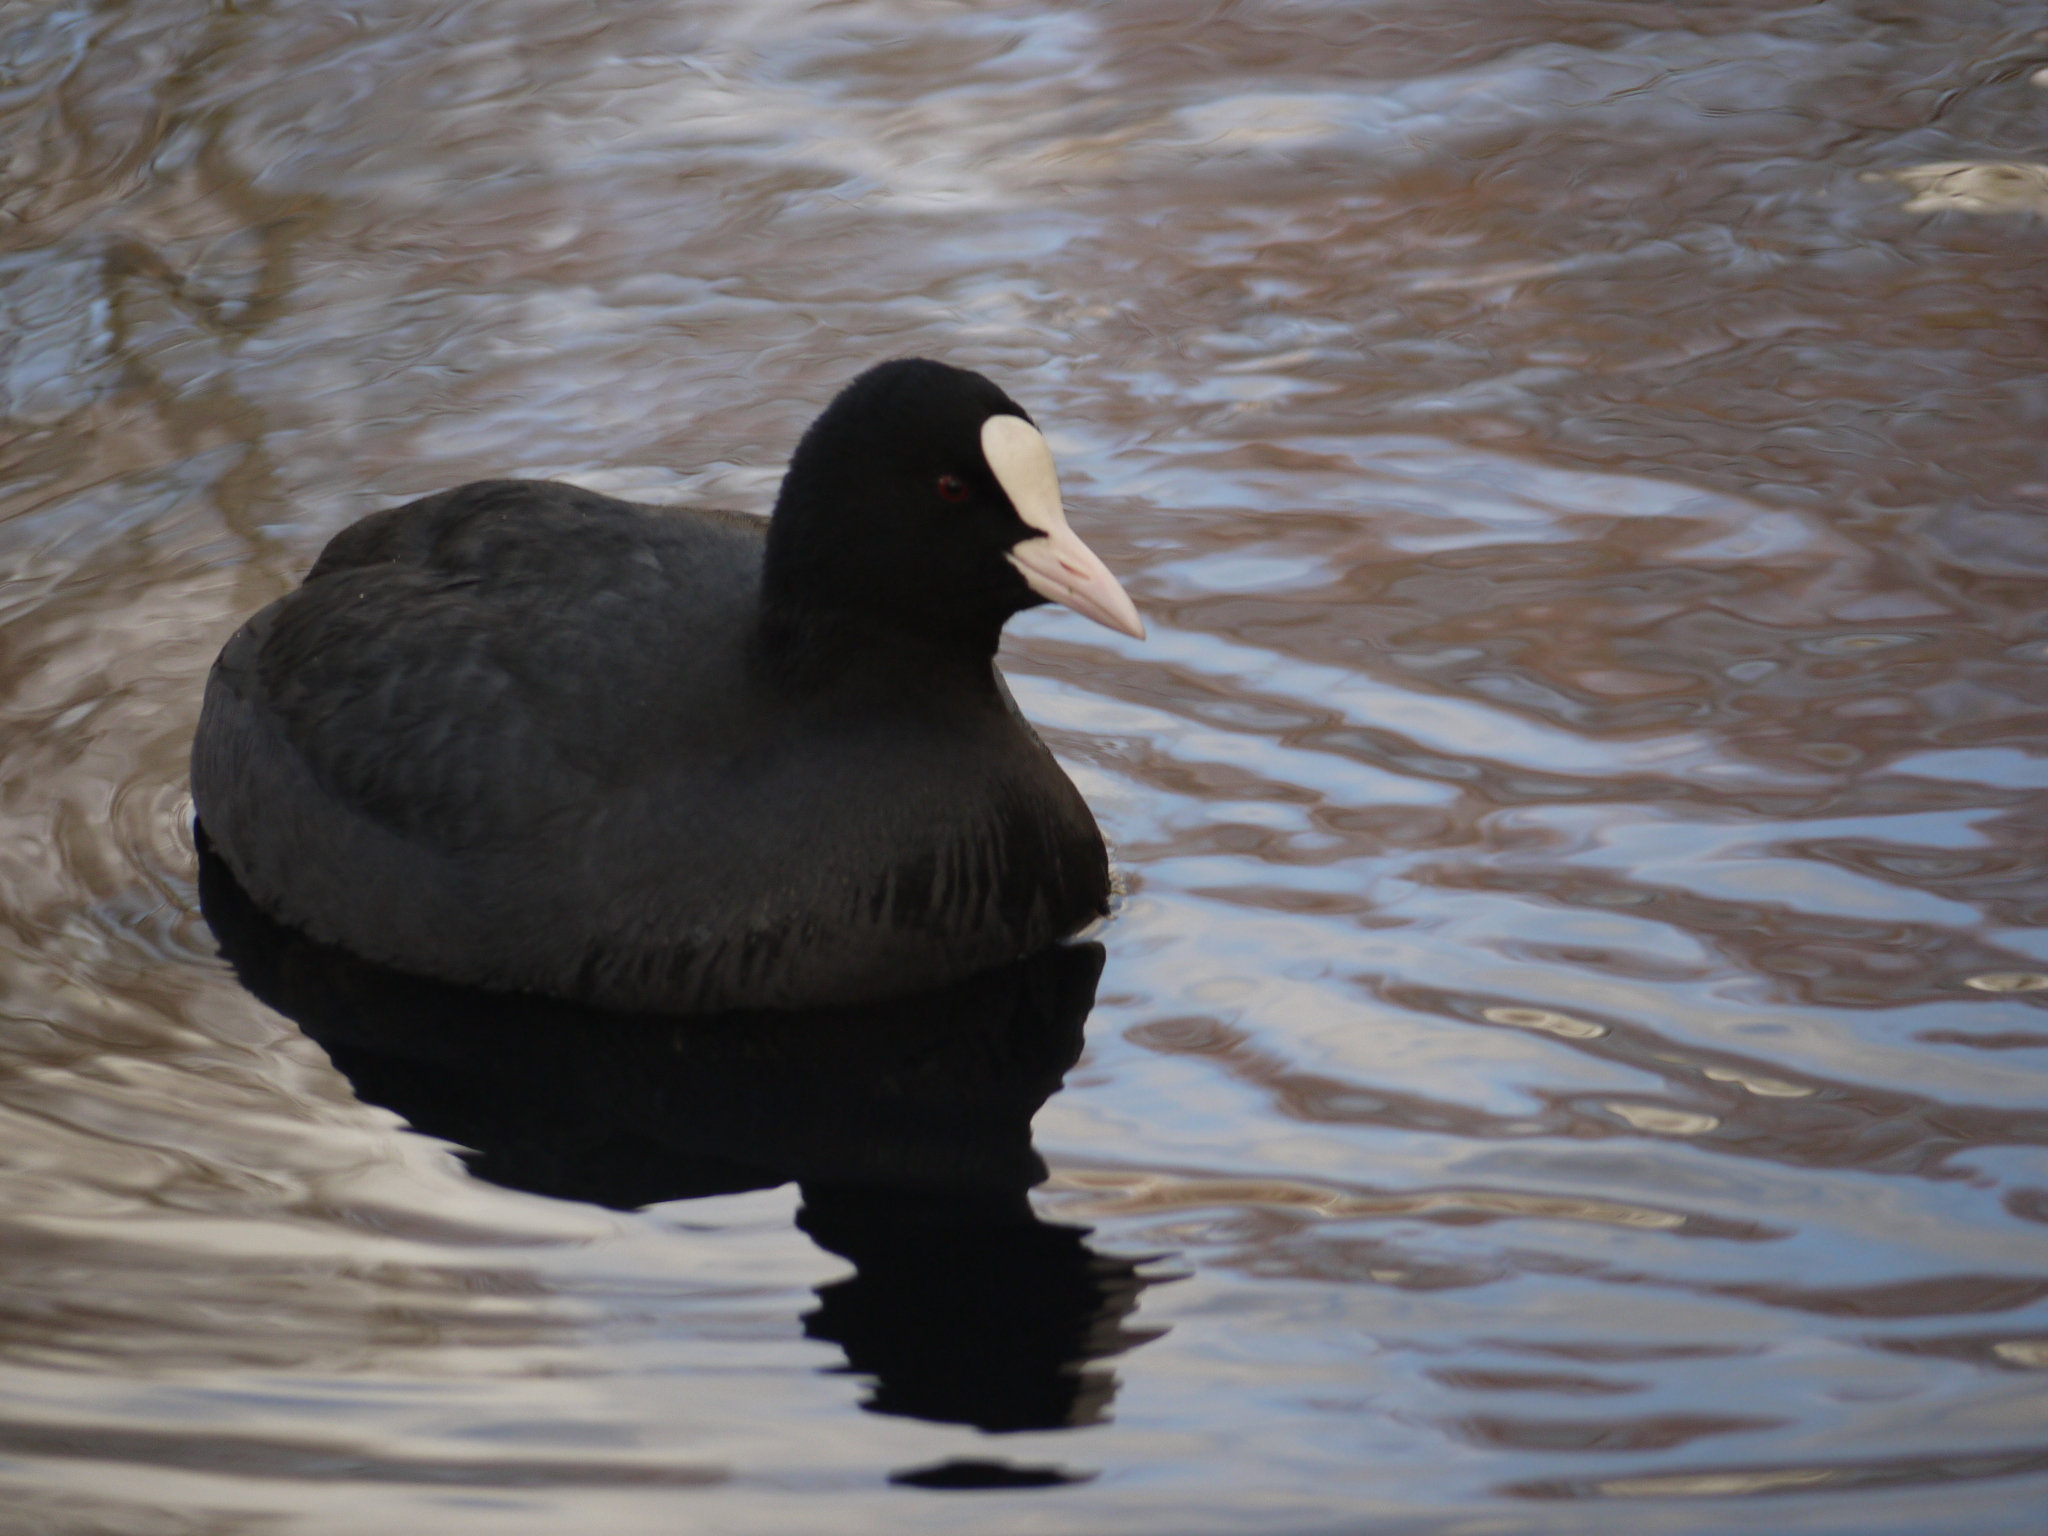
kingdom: Animalia
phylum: Chordata
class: Aves
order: Gruiformes
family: Rallidae
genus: Fulica
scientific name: Fulica atra
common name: Eurasian coot
